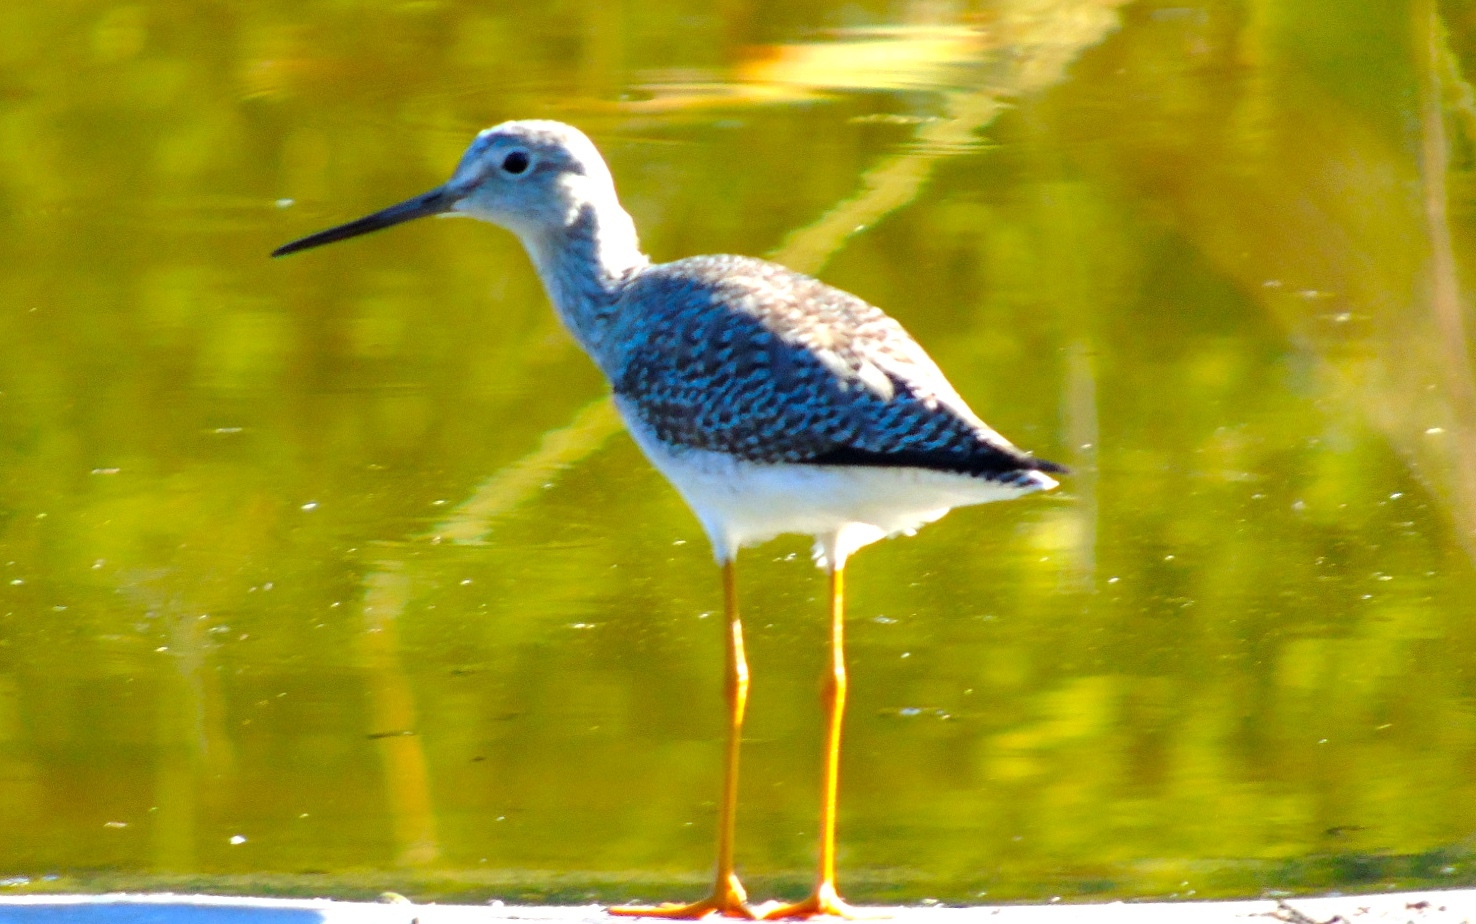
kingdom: Animalia
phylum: Chordata
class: Aves
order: Charadriiformes
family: Scolopacidae
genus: Tringa
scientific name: Tringa melanoleuca
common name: Greater yellowlegs
